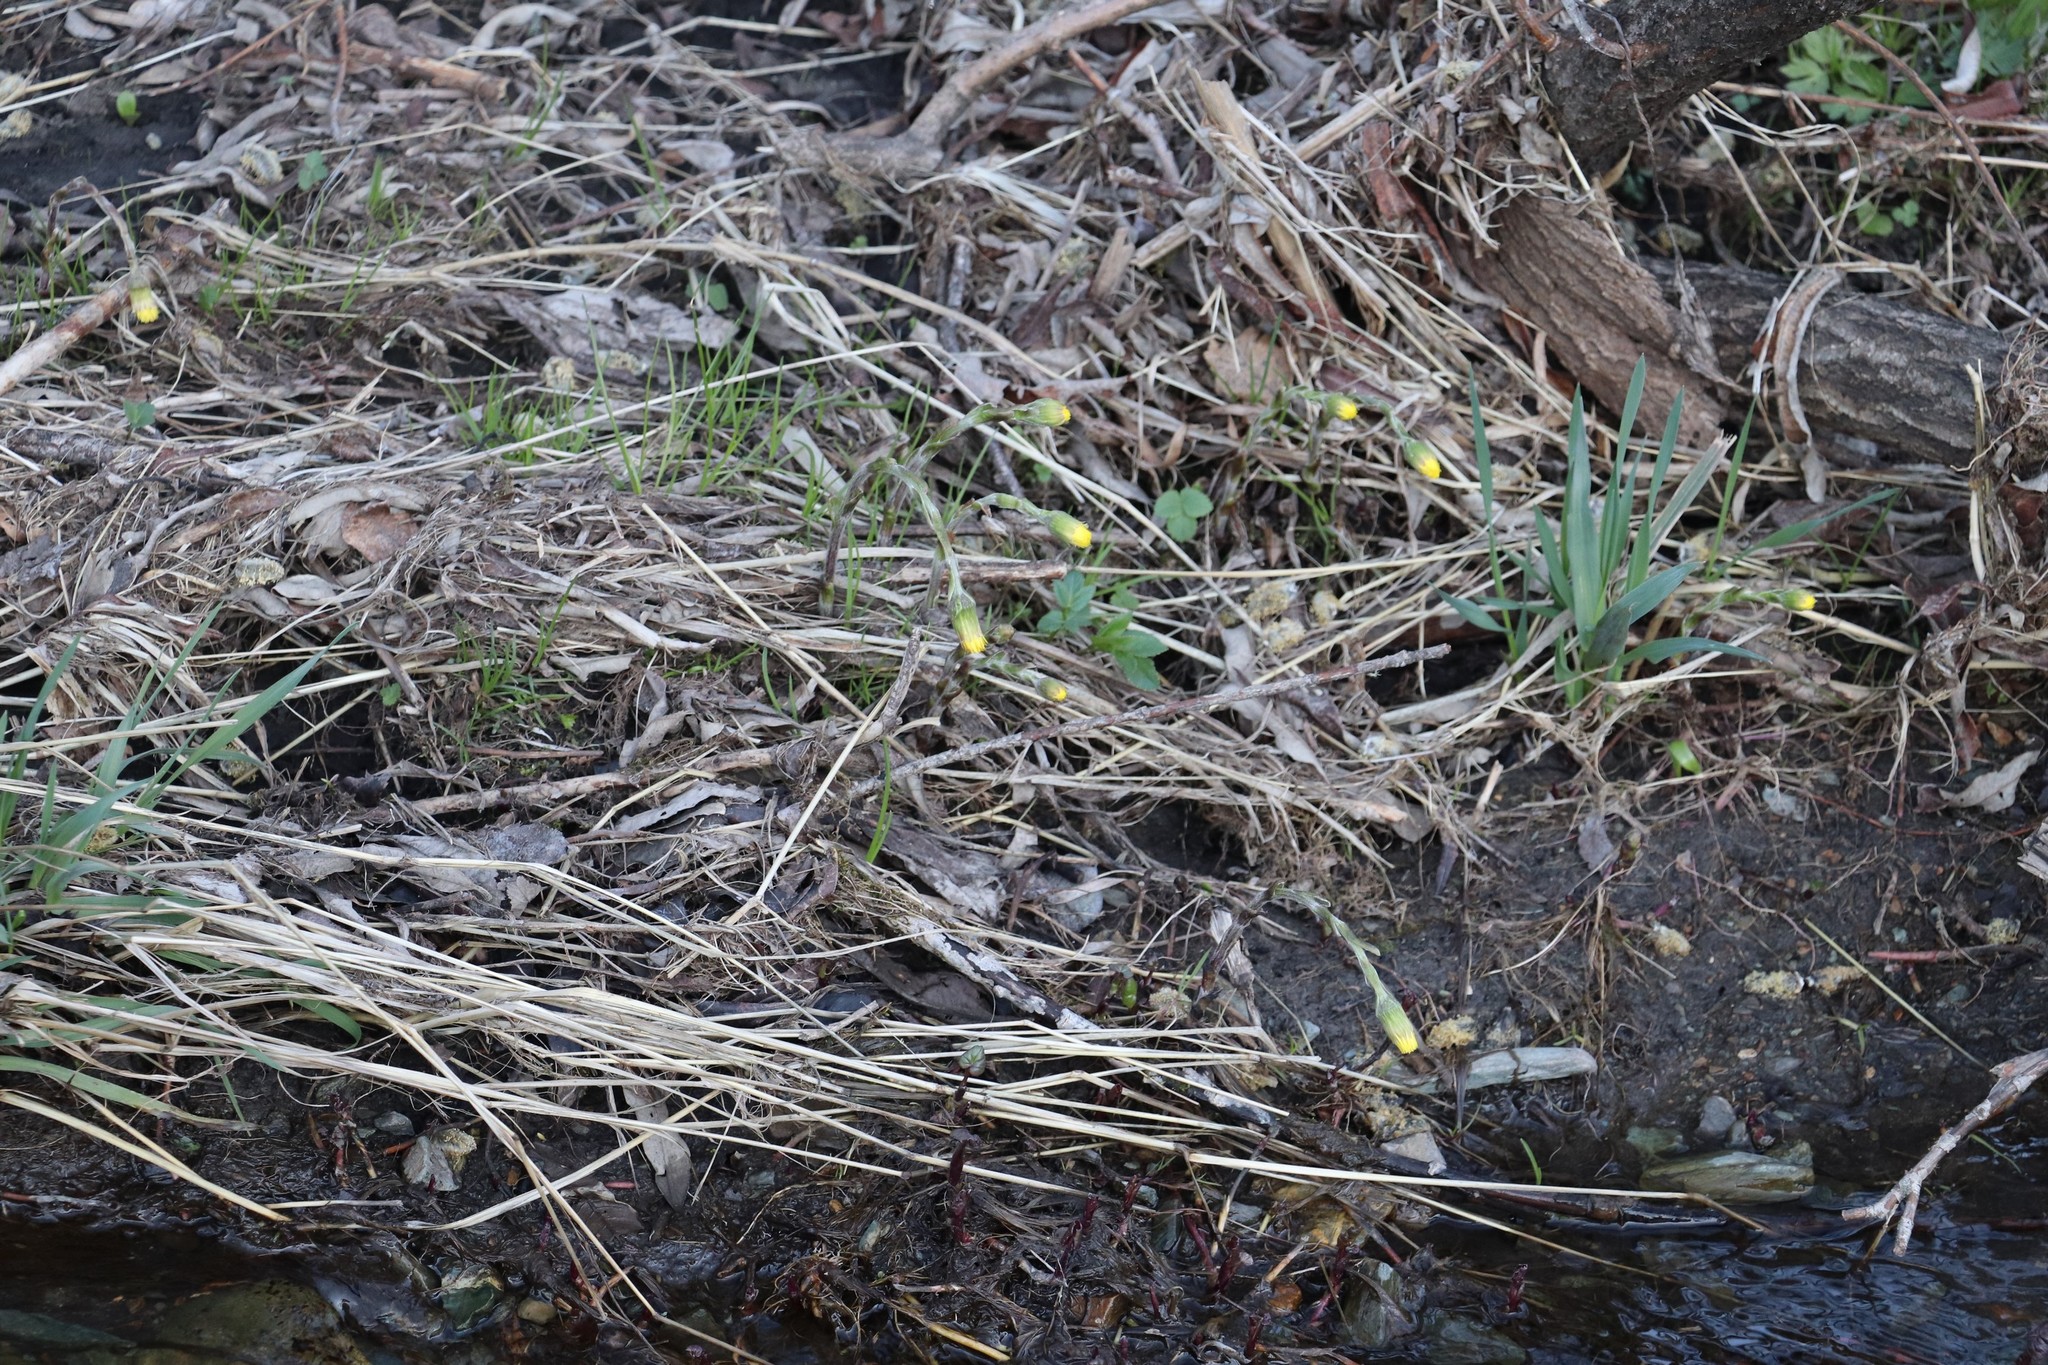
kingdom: Plantae
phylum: Tracheophyta
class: Magnoliopsida
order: Asterales
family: Asteraceae
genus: Tussilago
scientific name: Tussilago farfara
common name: Coltsfoot
